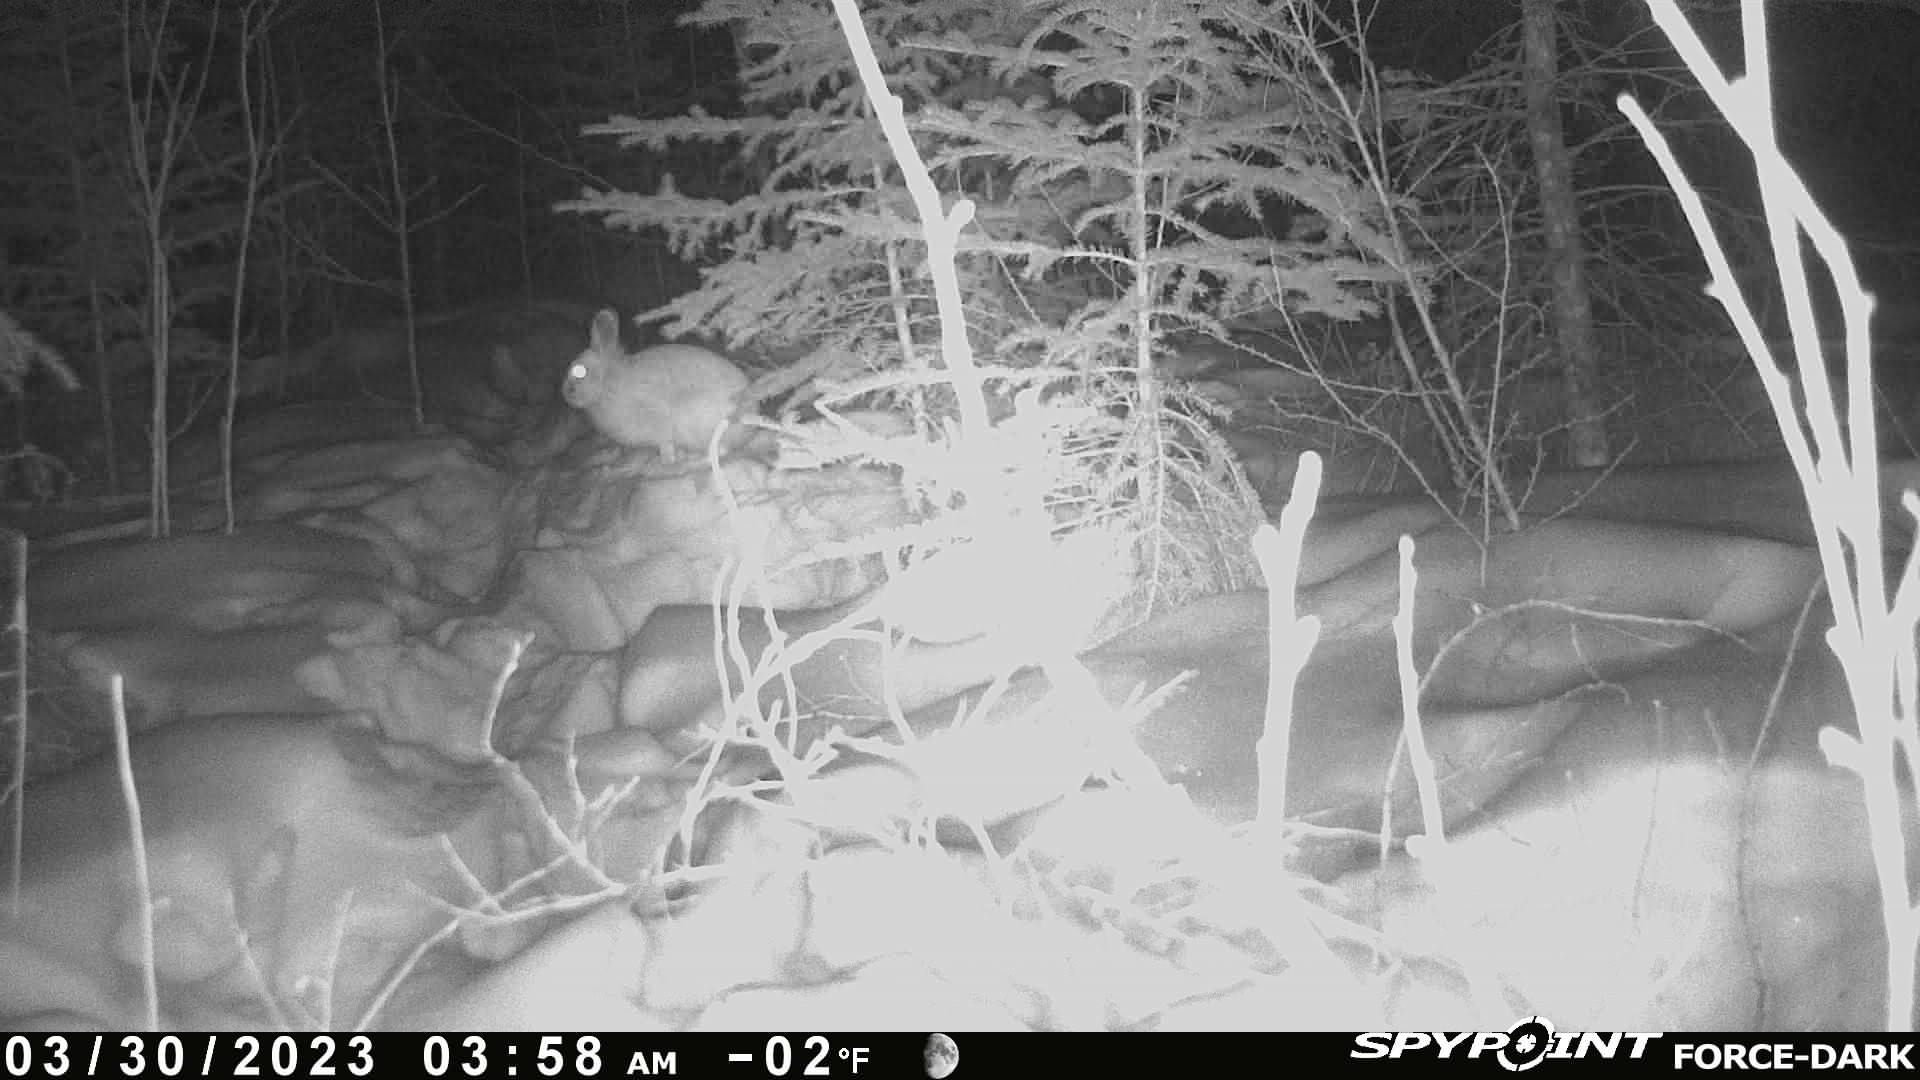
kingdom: Animalia
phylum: Chordata
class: Mammalia
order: Lagomorpha
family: Leporidae
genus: Sylvilagus
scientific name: Sylvilagus floridanus
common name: Eastern cottontail
